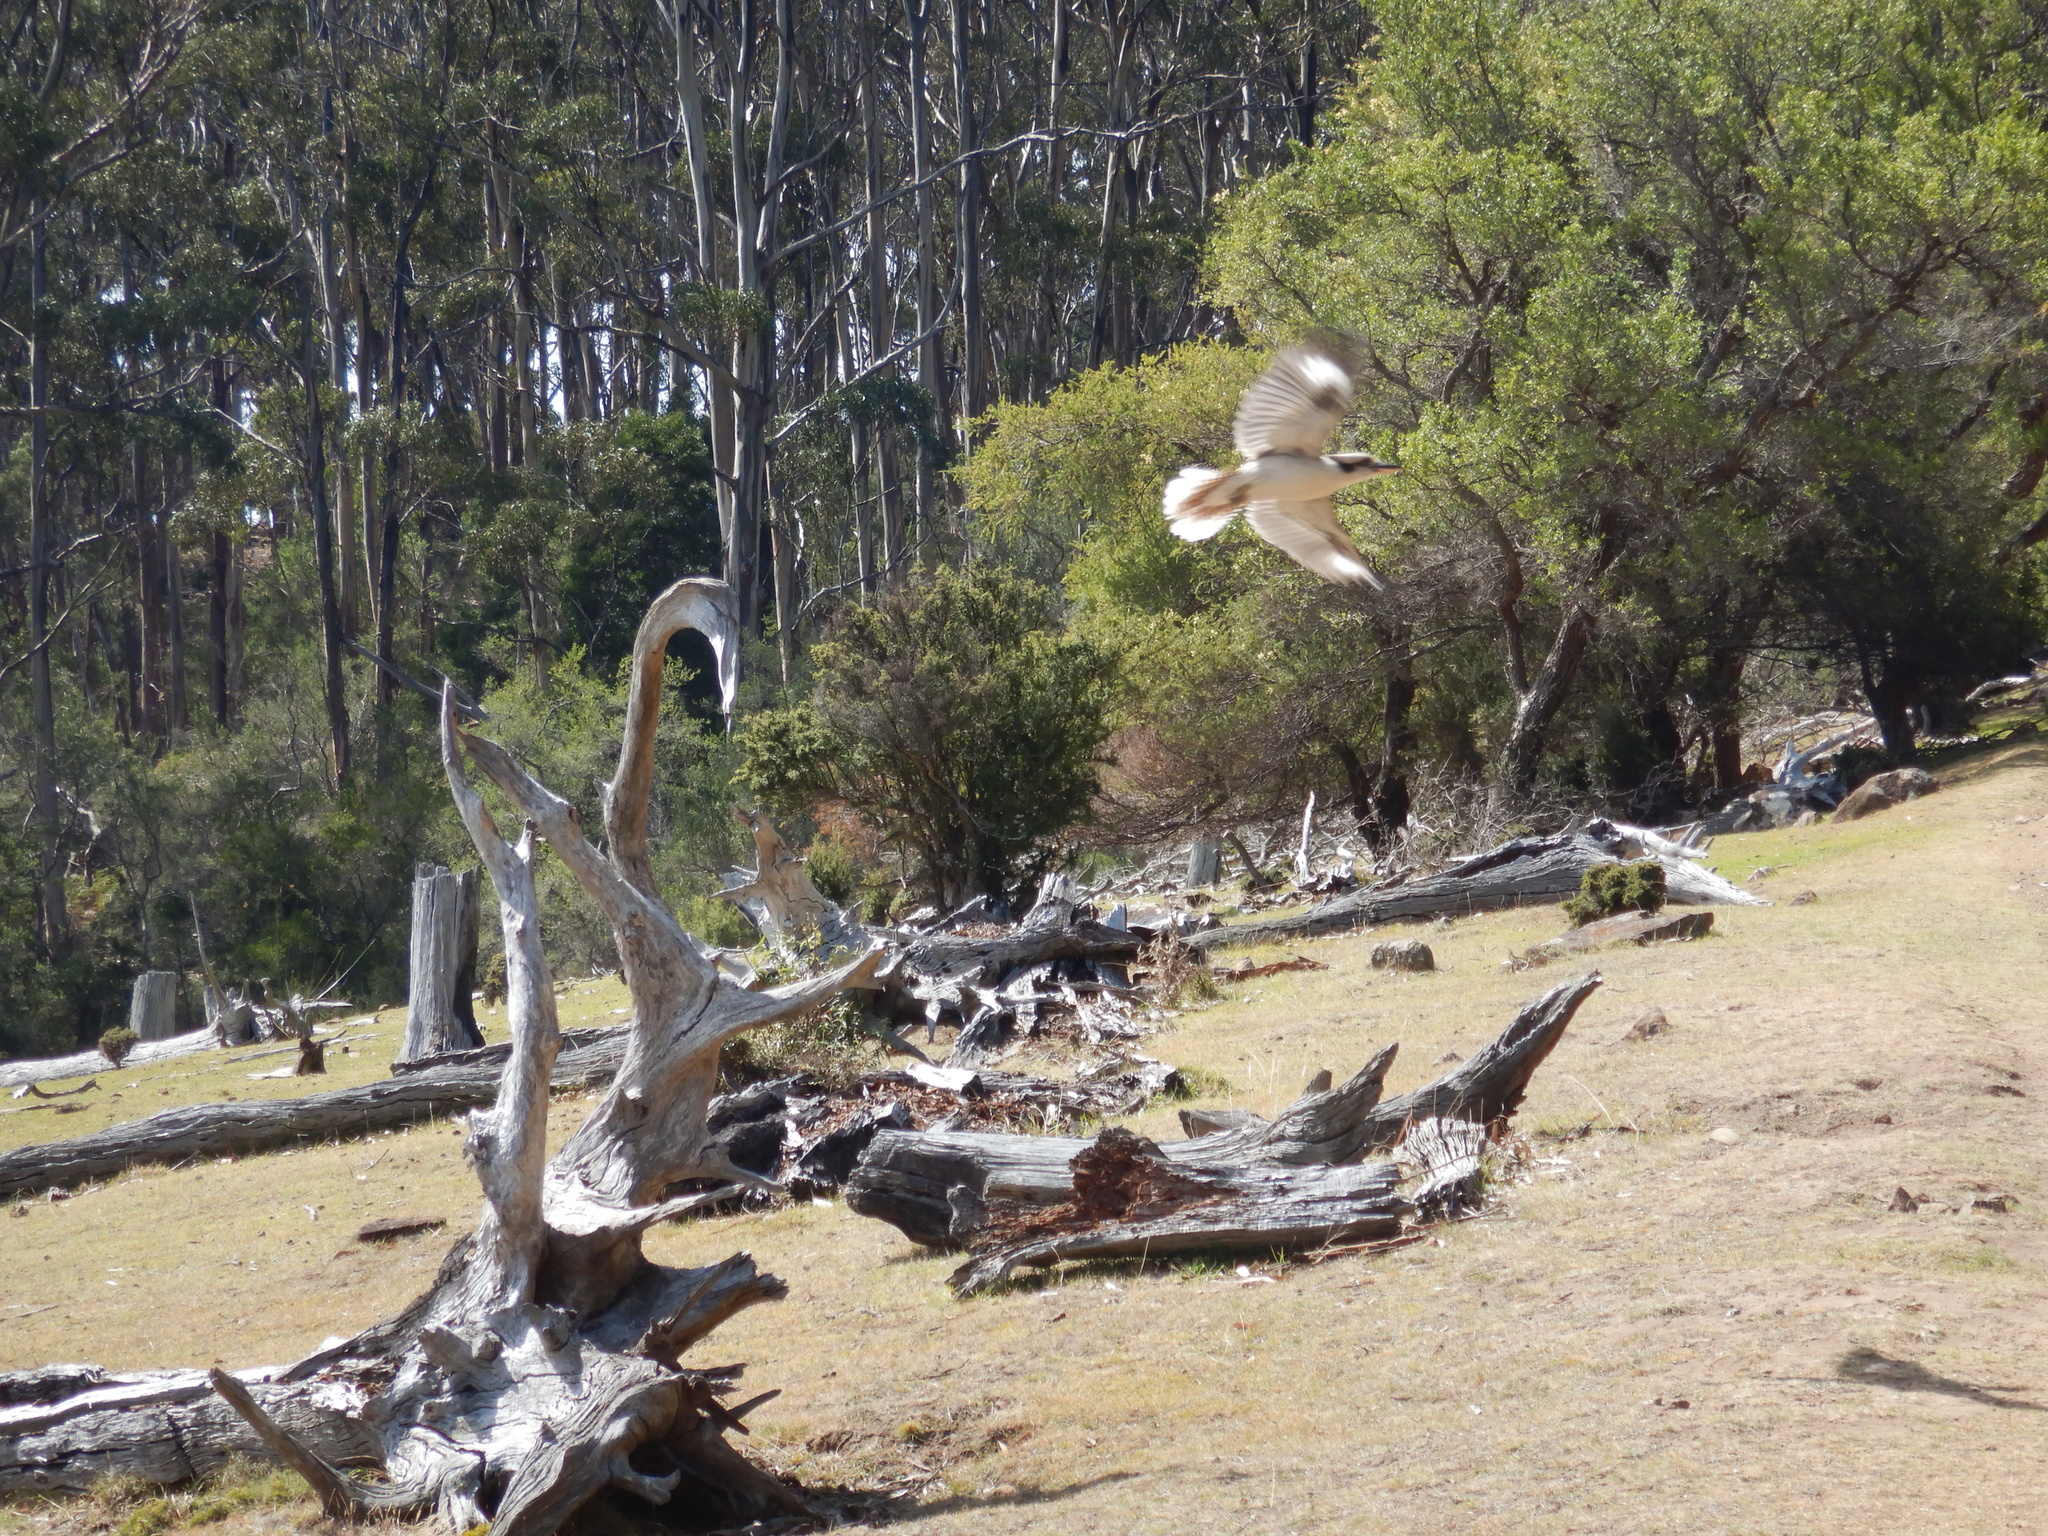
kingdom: Animalia
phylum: Chordata
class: Aves
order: Coraciiformes
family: Alcedinidae
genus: Dacelo
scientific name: Dacelo novaeguineae
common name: Laughing kookaburra
